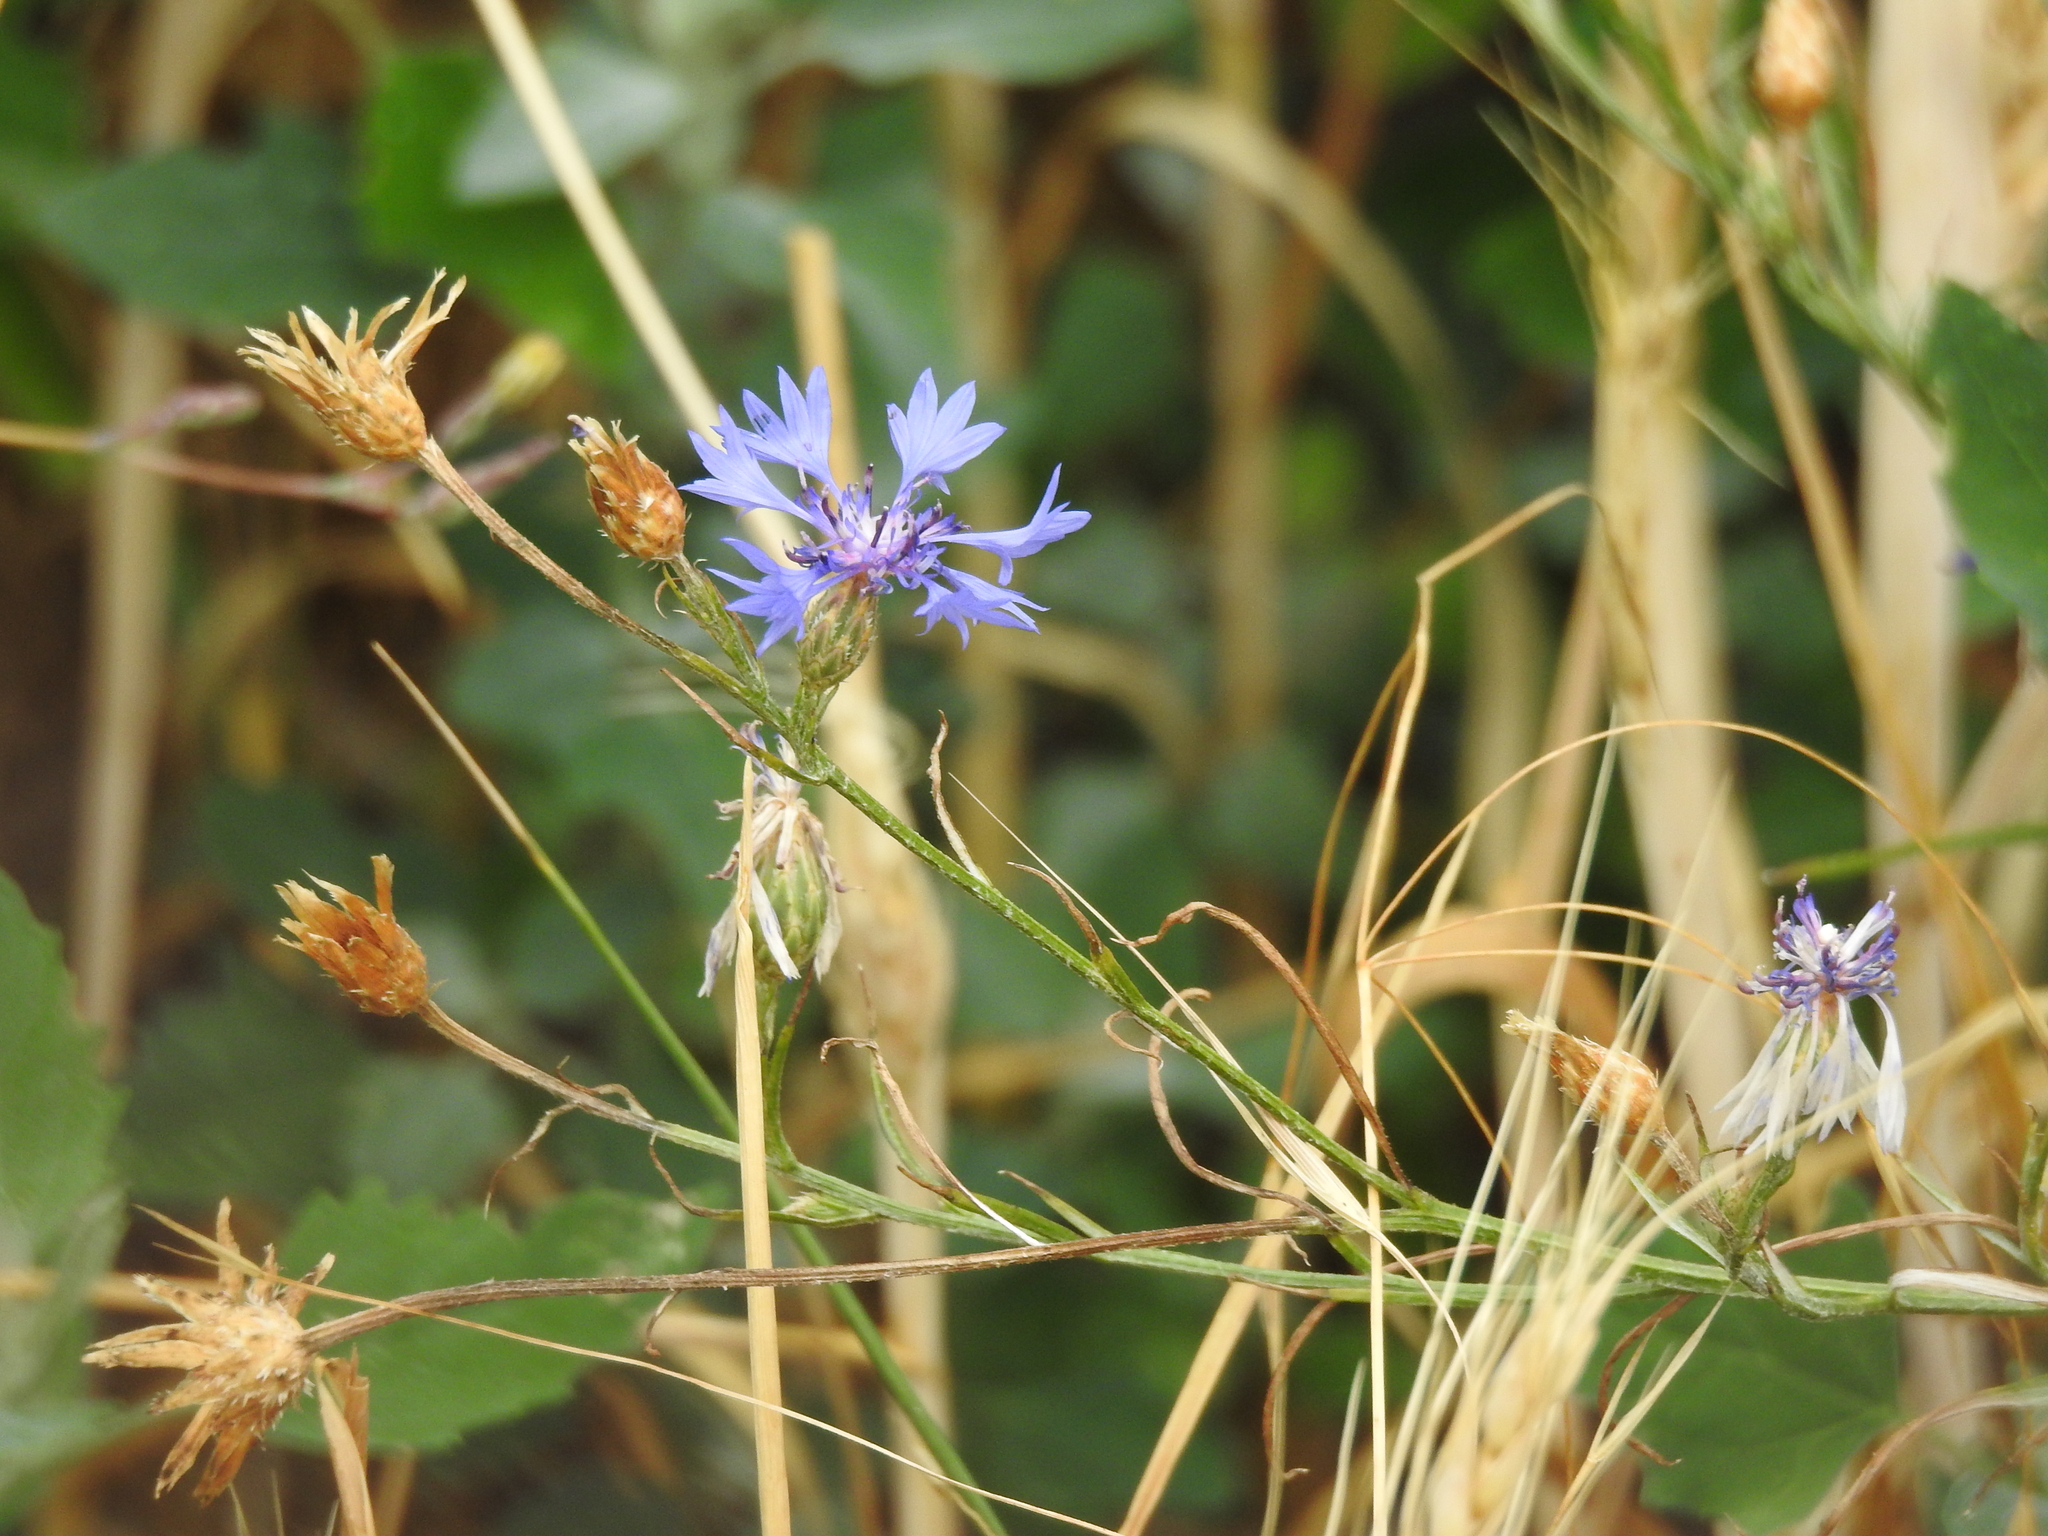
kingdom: Plantae
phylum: Tracheophyta
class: Magnoliopsida
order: Asterales
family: Asteraceae
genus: Centaurea
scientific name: Centaurea cyanus
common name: Cornflower
